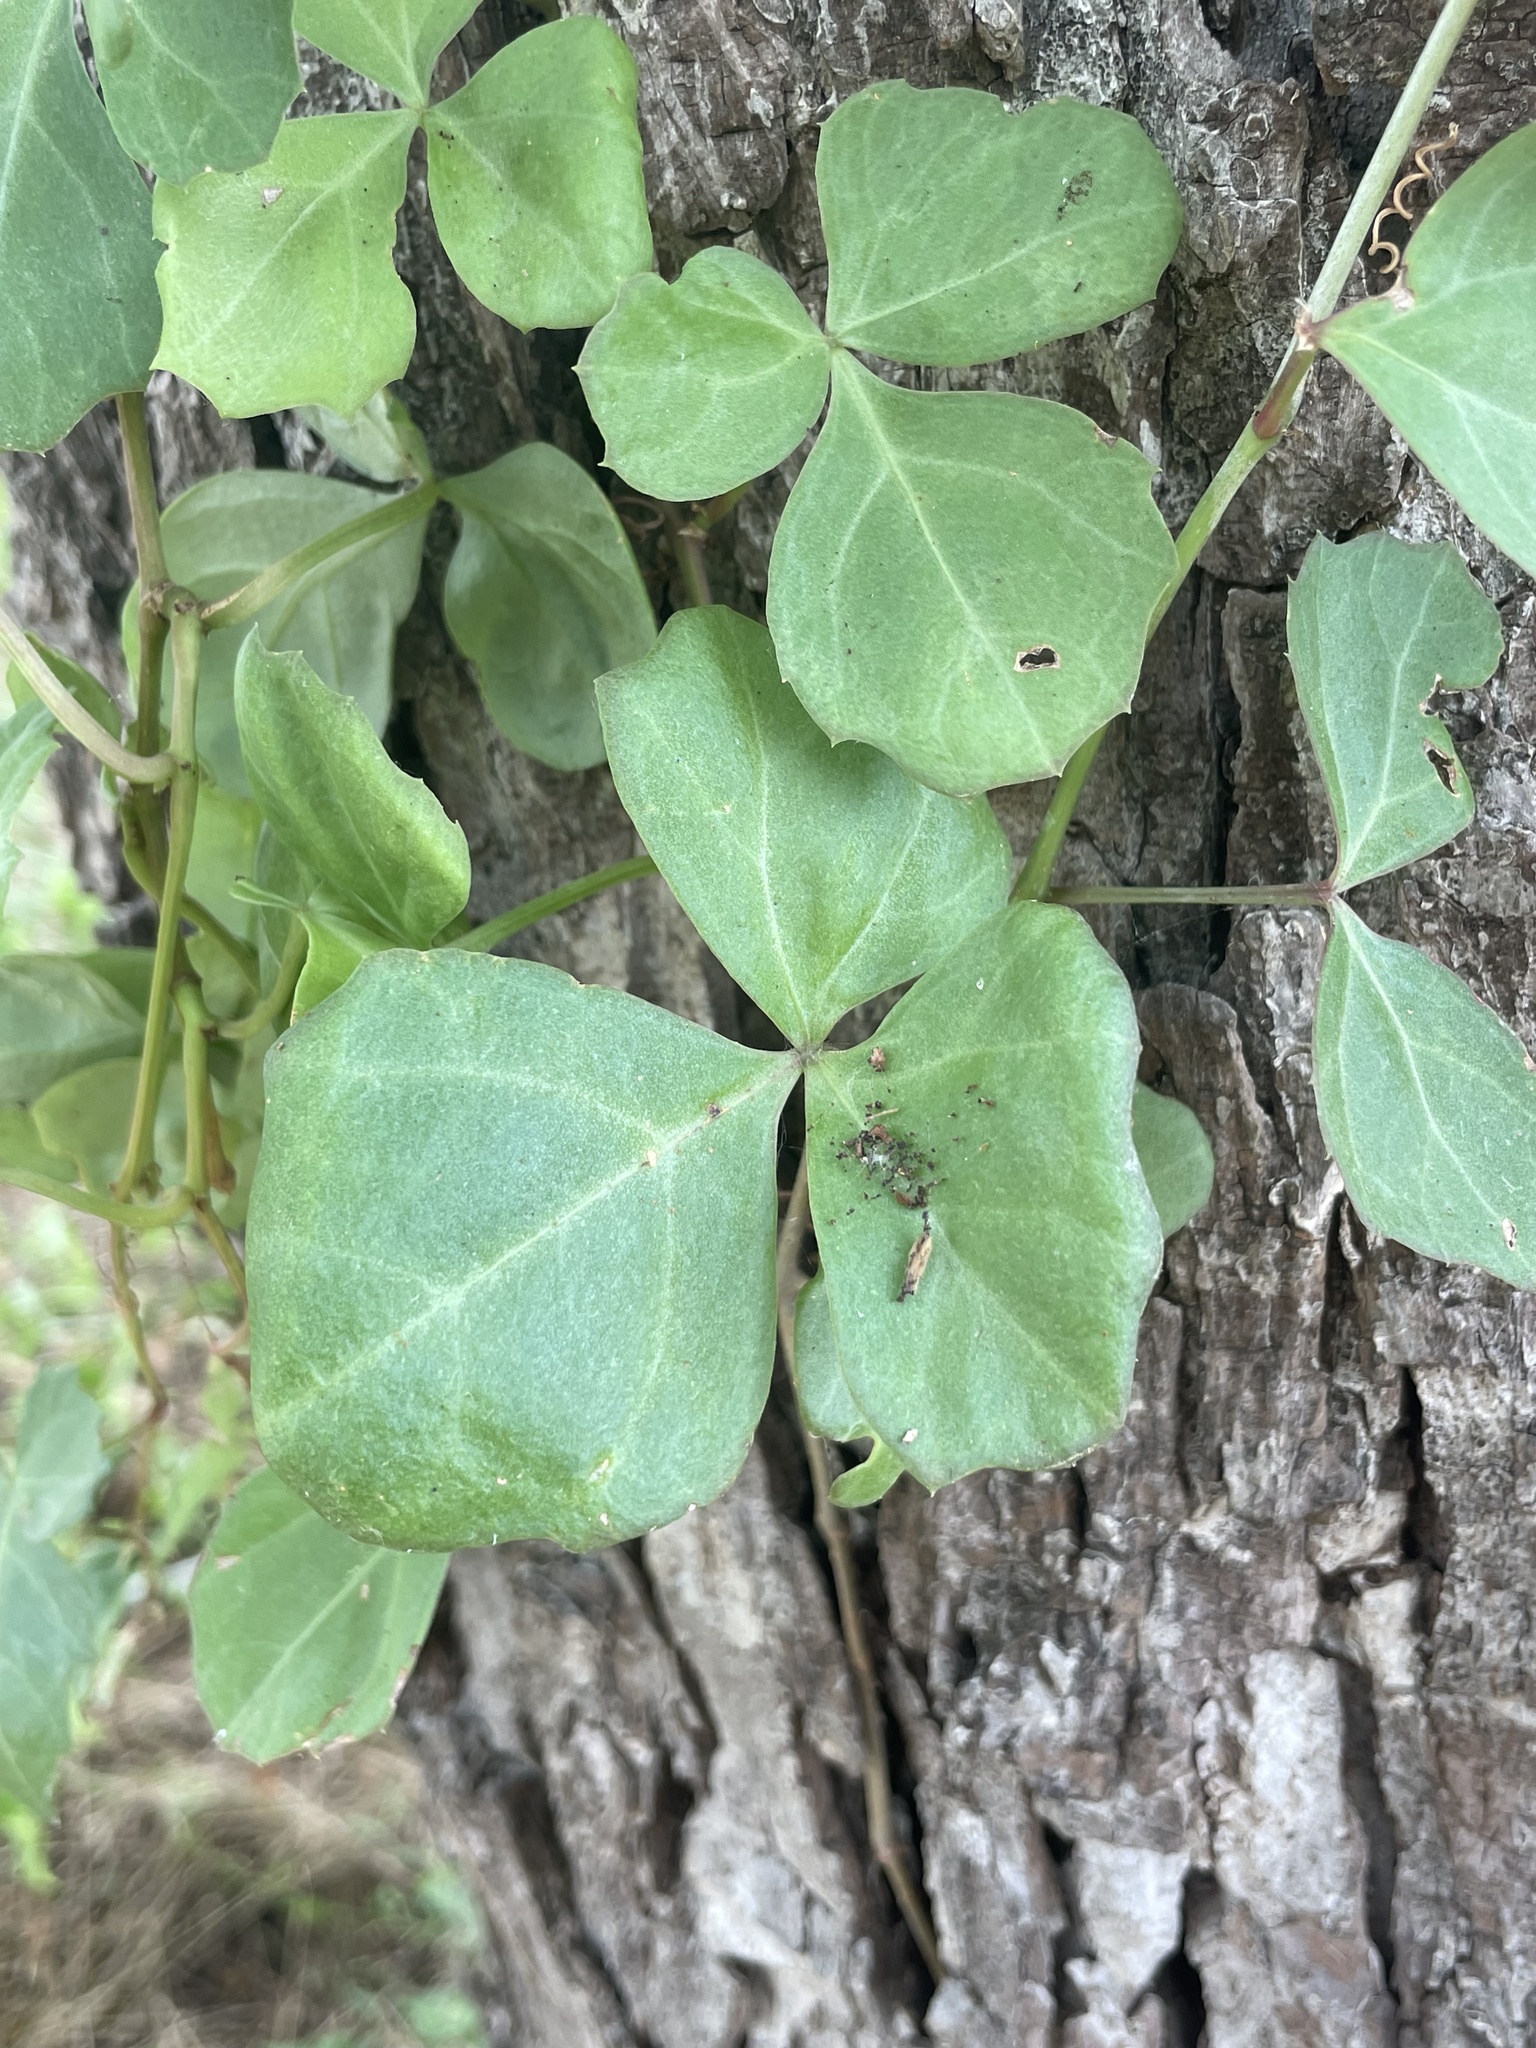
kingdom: Plantae
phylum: Tracheophyta
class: Magnoliopsida
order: Vitales
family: Vitaceae
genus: Cissus
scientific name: Cissus trifoliata
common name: Vine-sorrel
